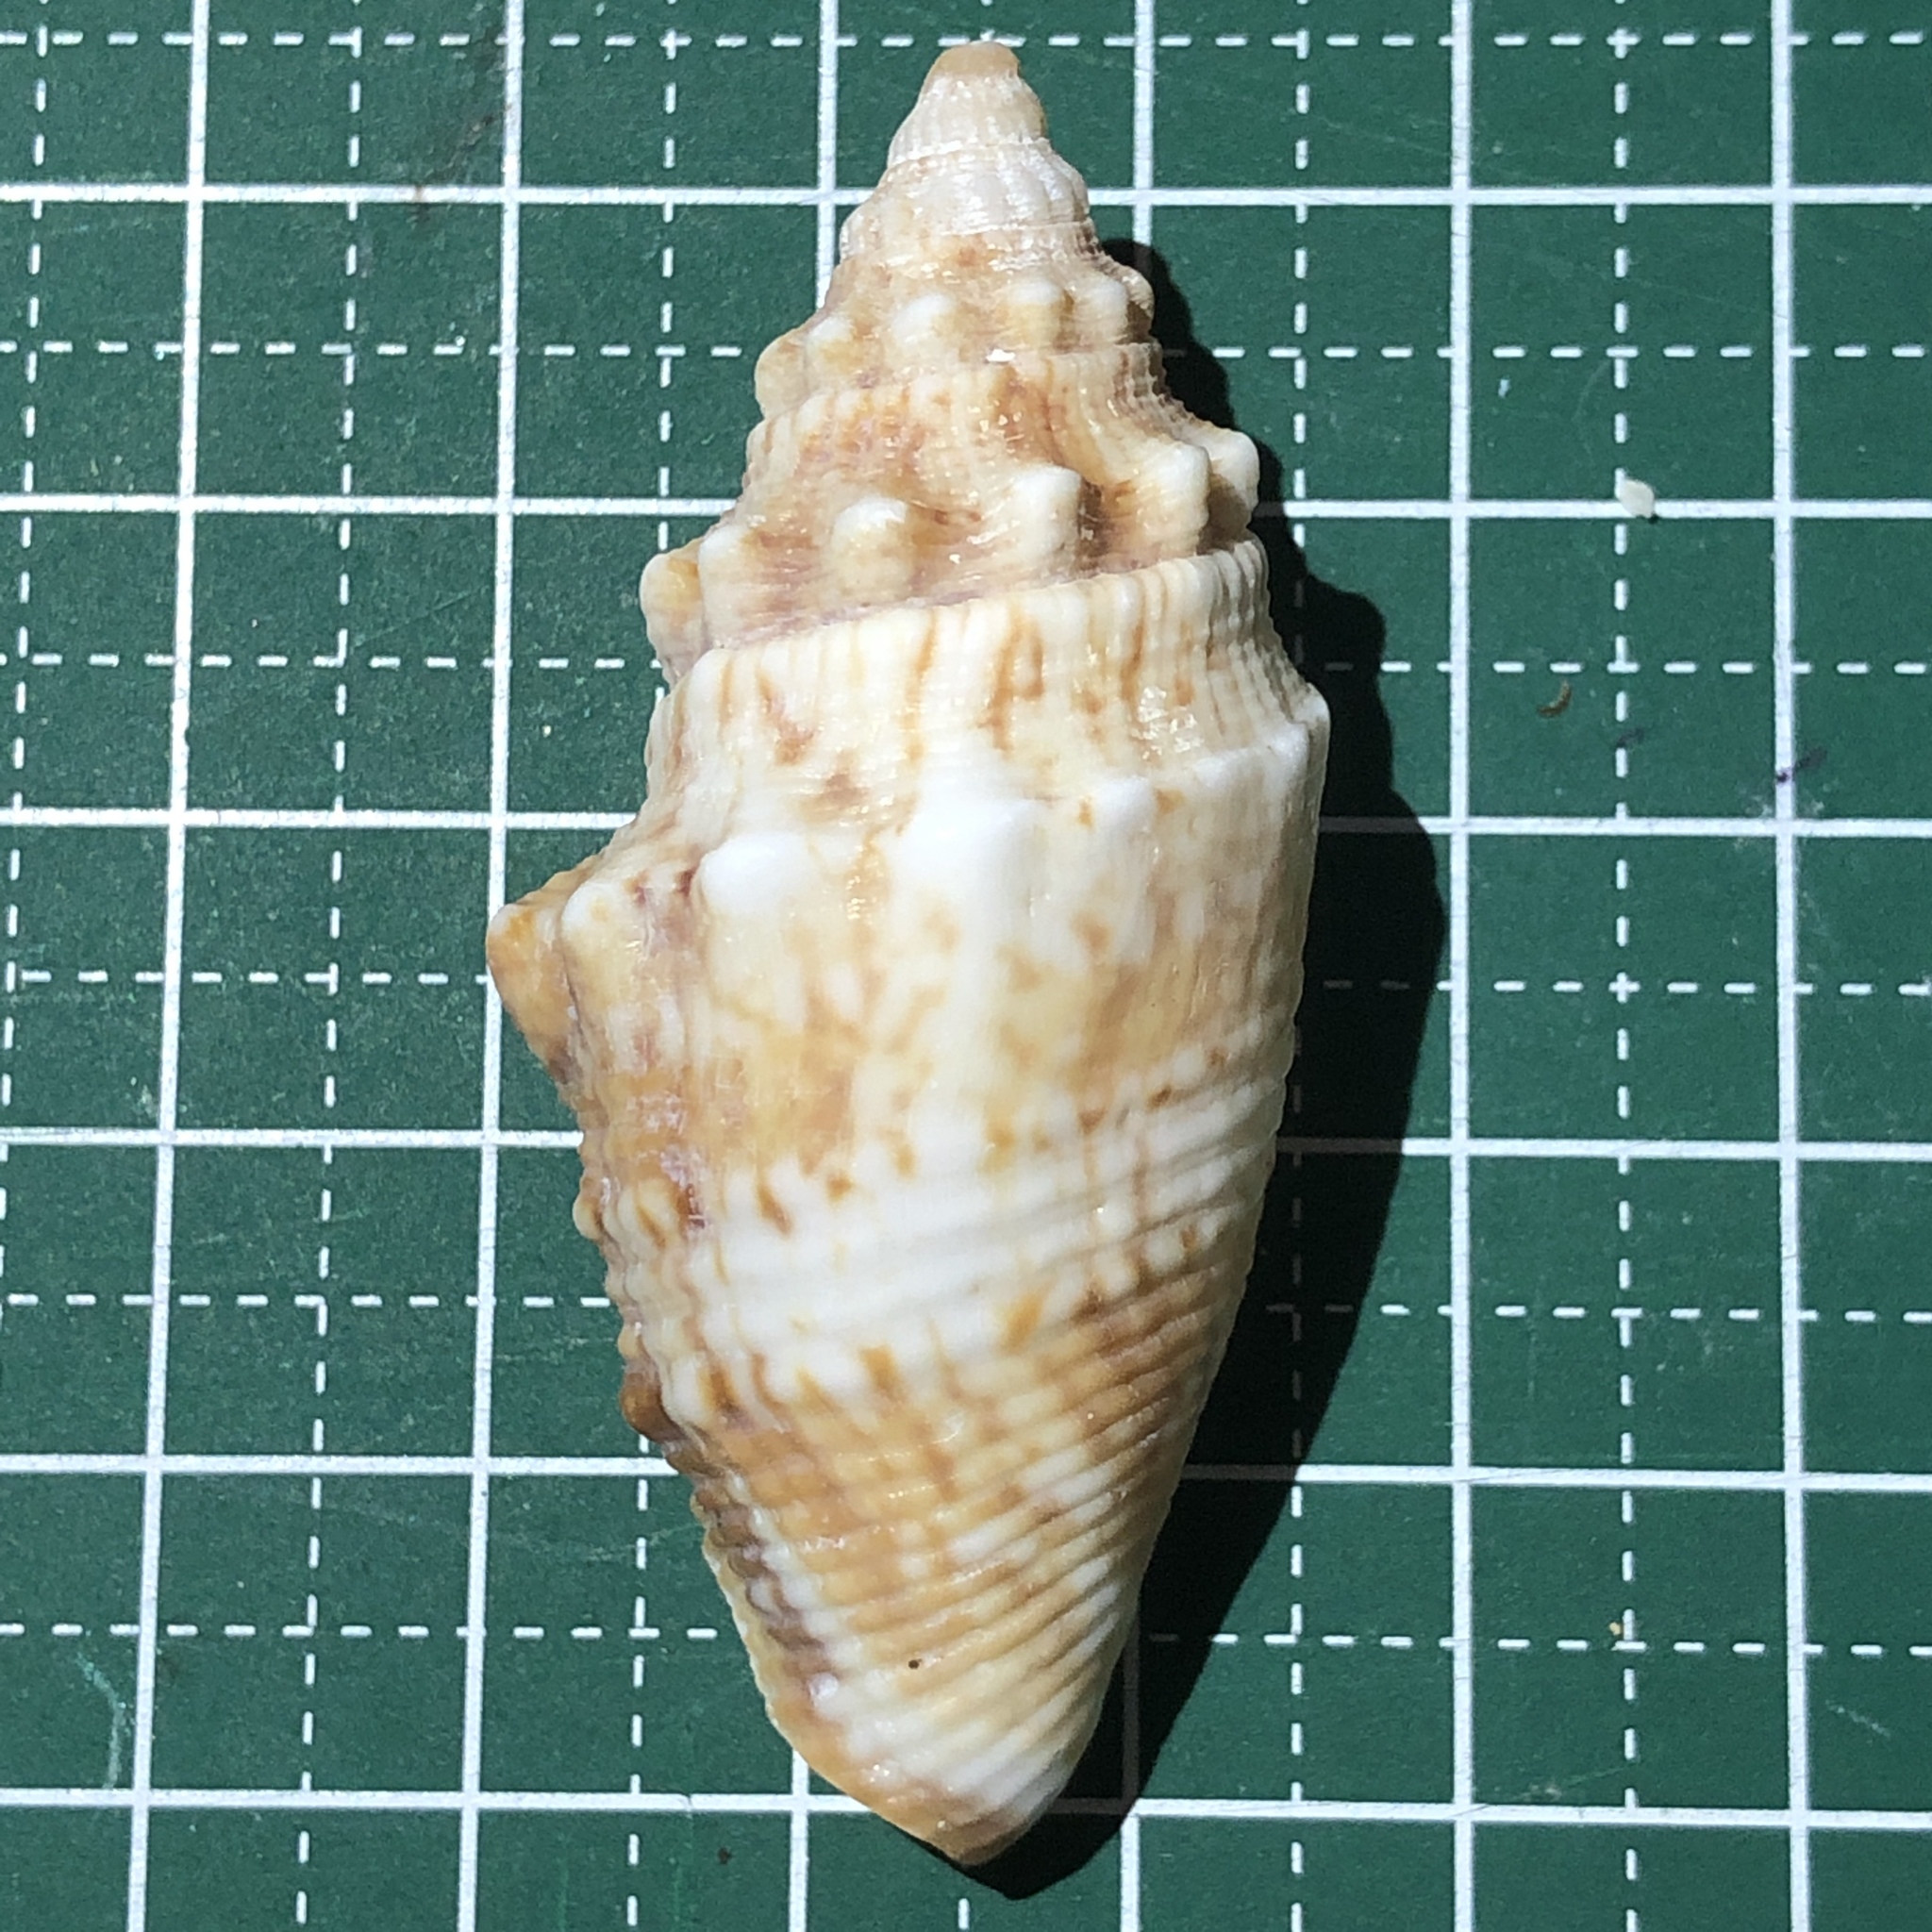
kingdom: Animalia
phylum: Mollusca
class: Gastropoda
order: Littorinimorpha
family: Strombidae
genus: Euprotomus
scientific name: Euprotomus aurisdianae
